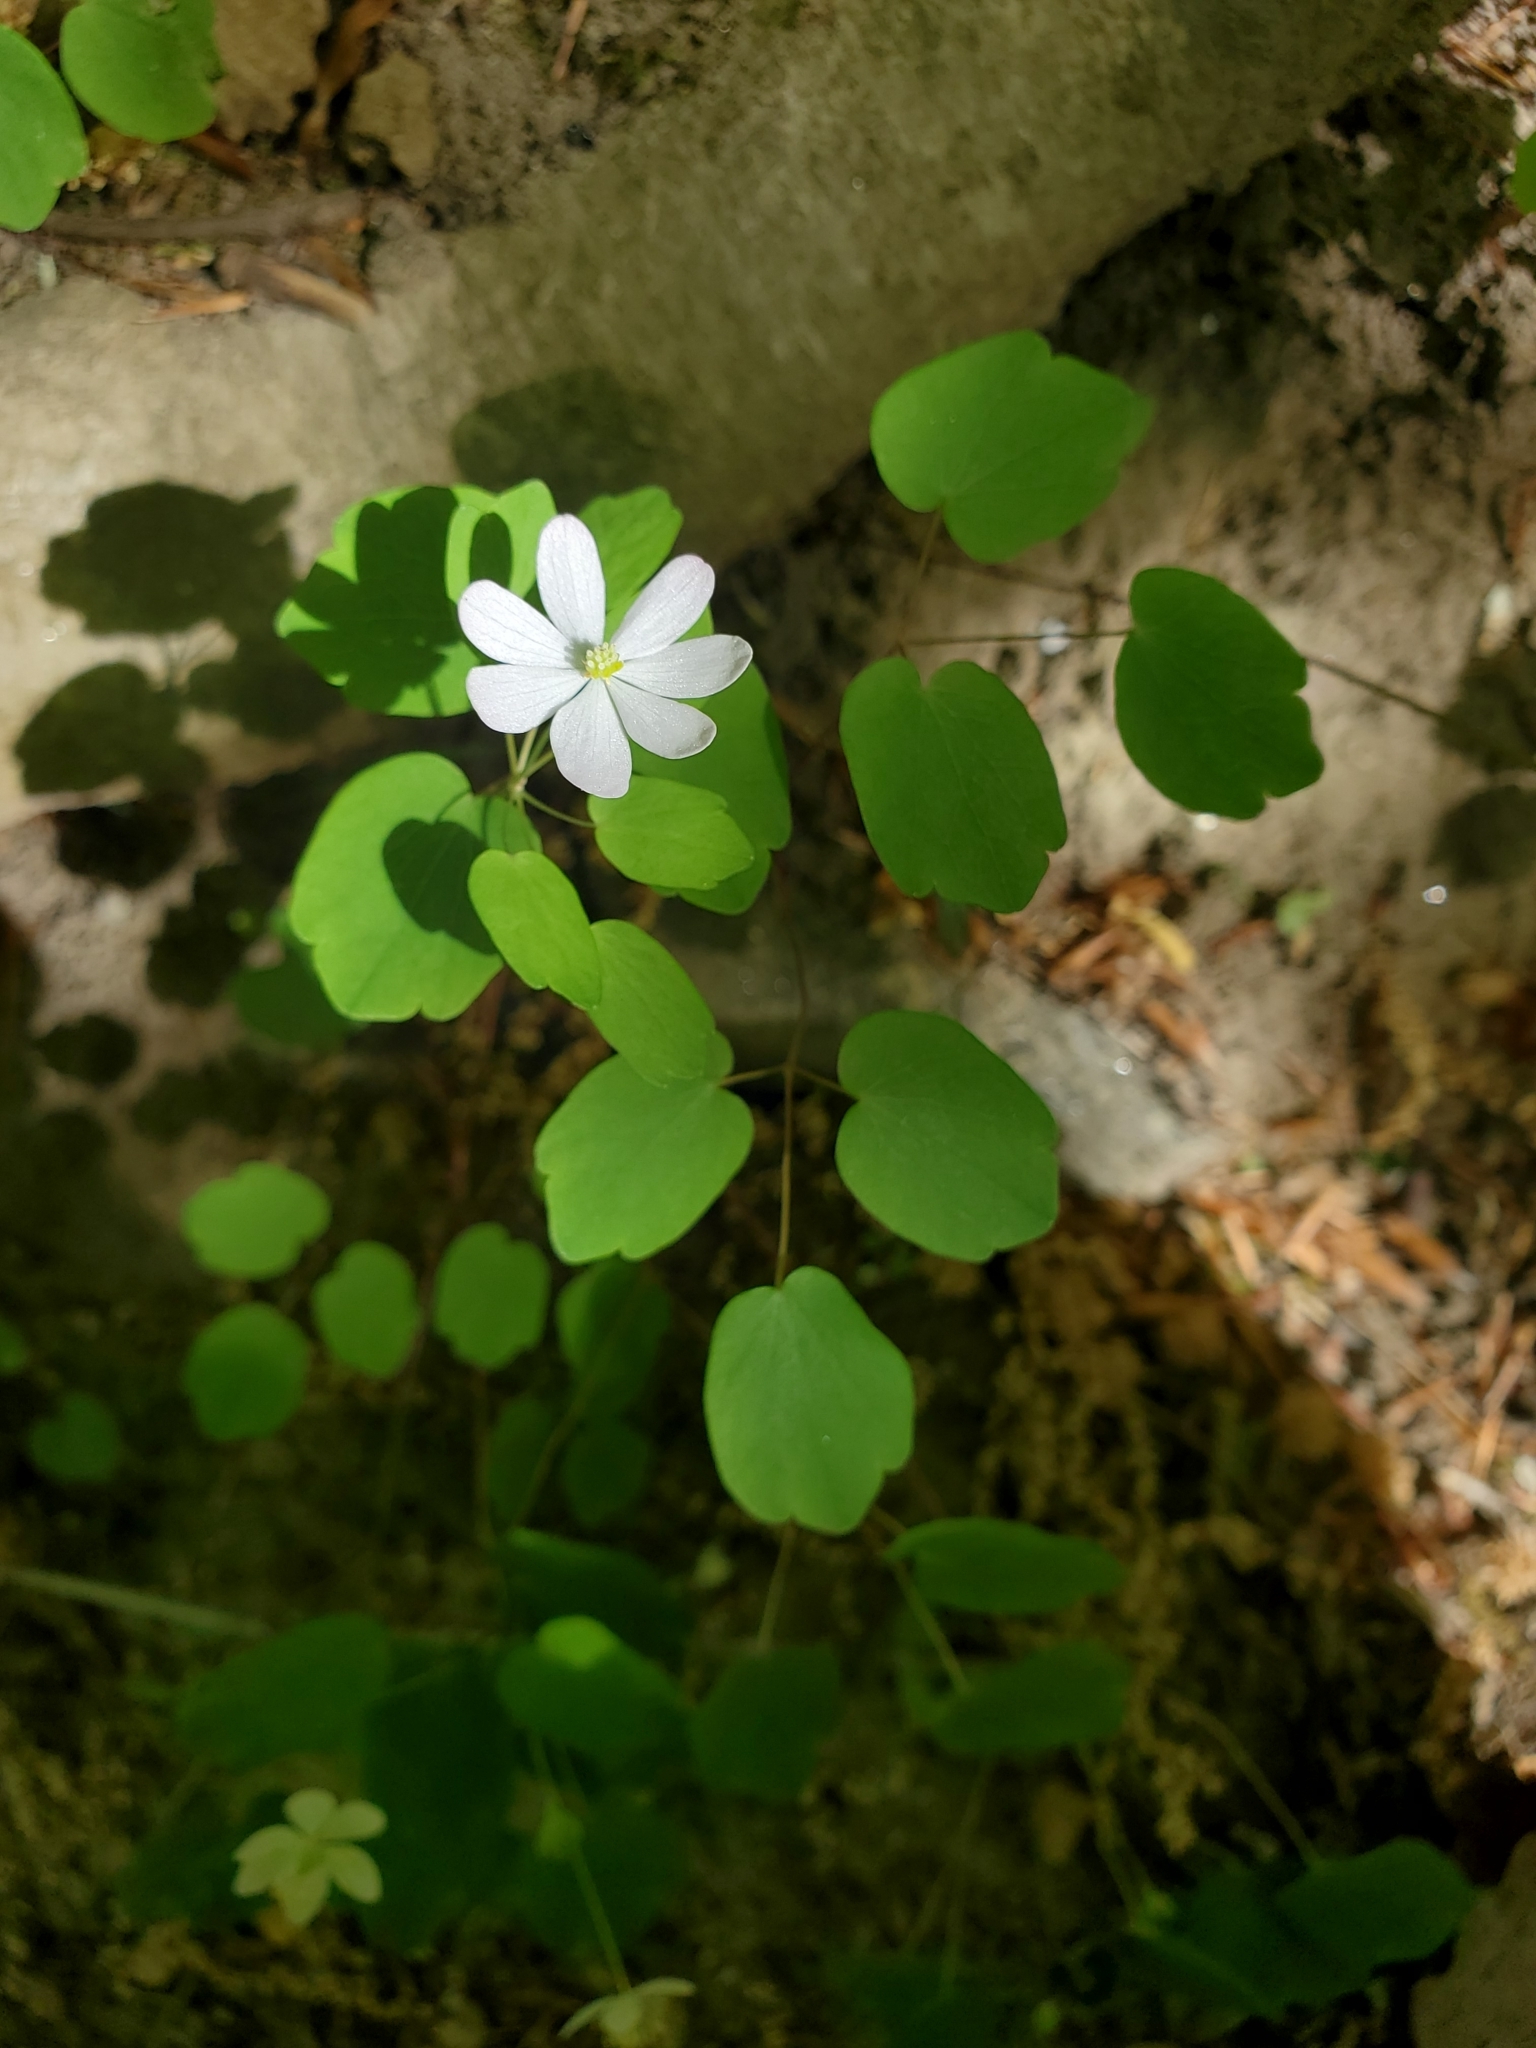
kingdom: Plantae
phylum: Tracheophyta
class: Magnoliopsida
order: Ranunculales
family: Ranunculaceae
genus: Thalictrum
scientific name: Thalictrum thalictroides
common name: Rue-anemone
